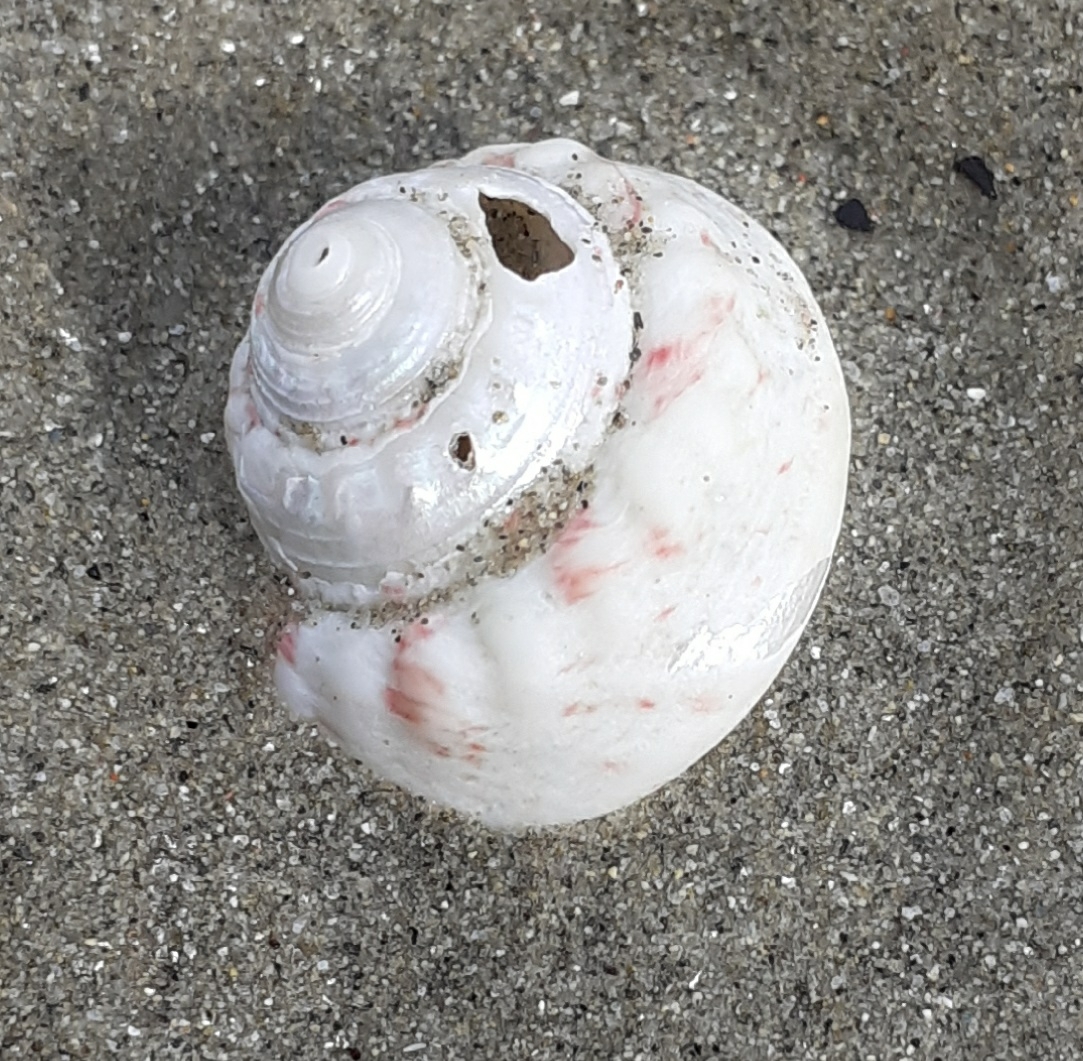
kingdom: Animalia
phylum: Mollusca
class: Gastropoda
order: Trochida
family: Trochidae
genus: Gibbula
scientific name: Gibbula magus
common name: Turban top shell
